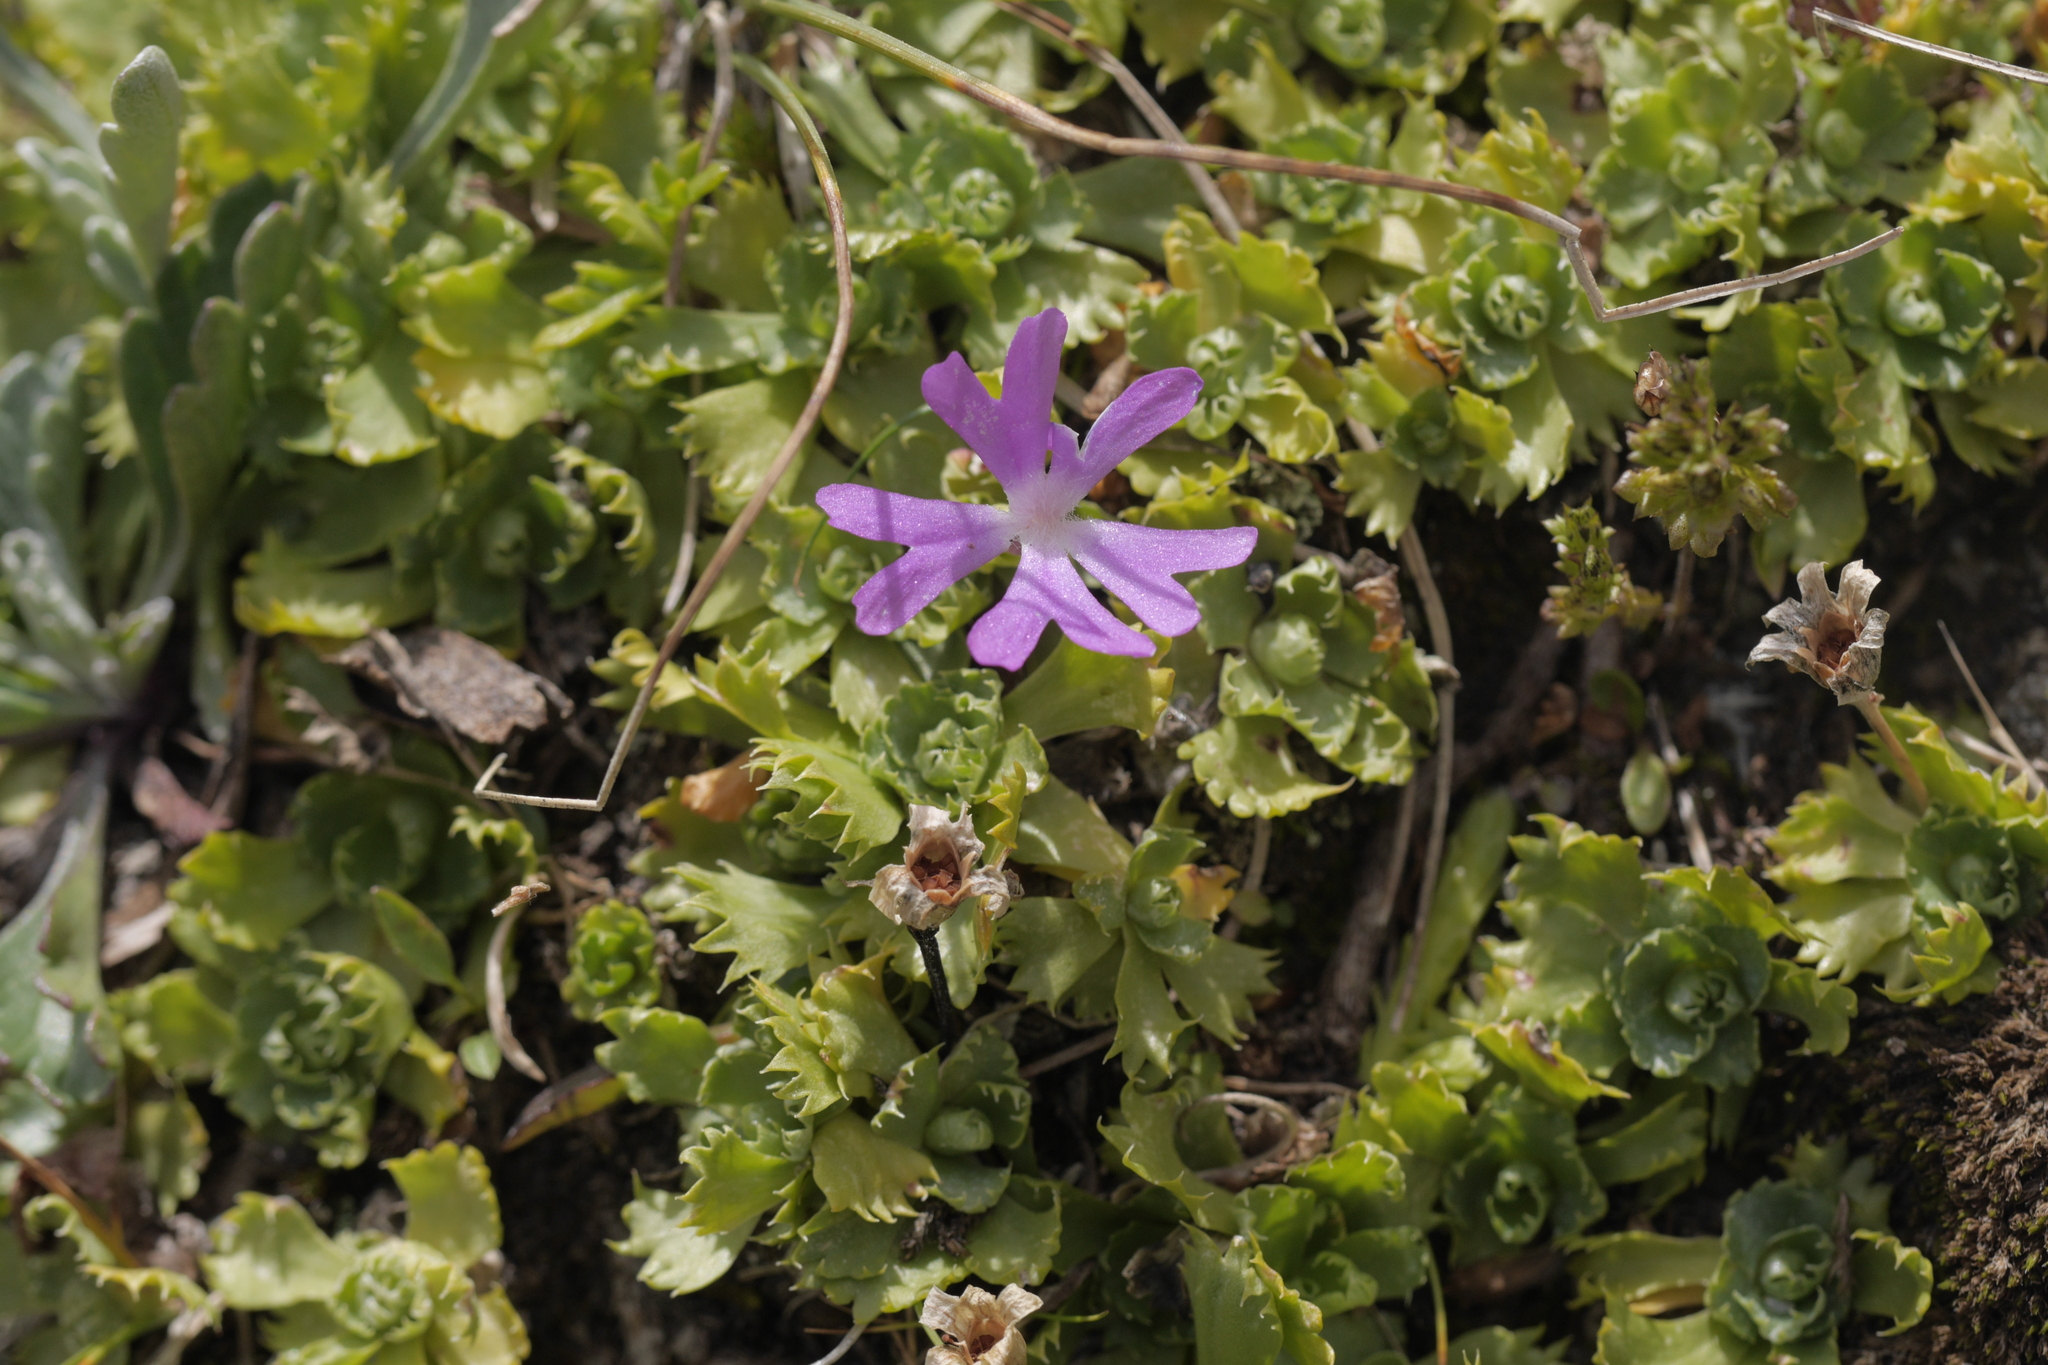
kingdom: Plantae
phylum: Tracheophyta
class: Magnoliopsida
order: Ericales
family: Primulaceae
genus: Primula
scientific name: Primula minima
